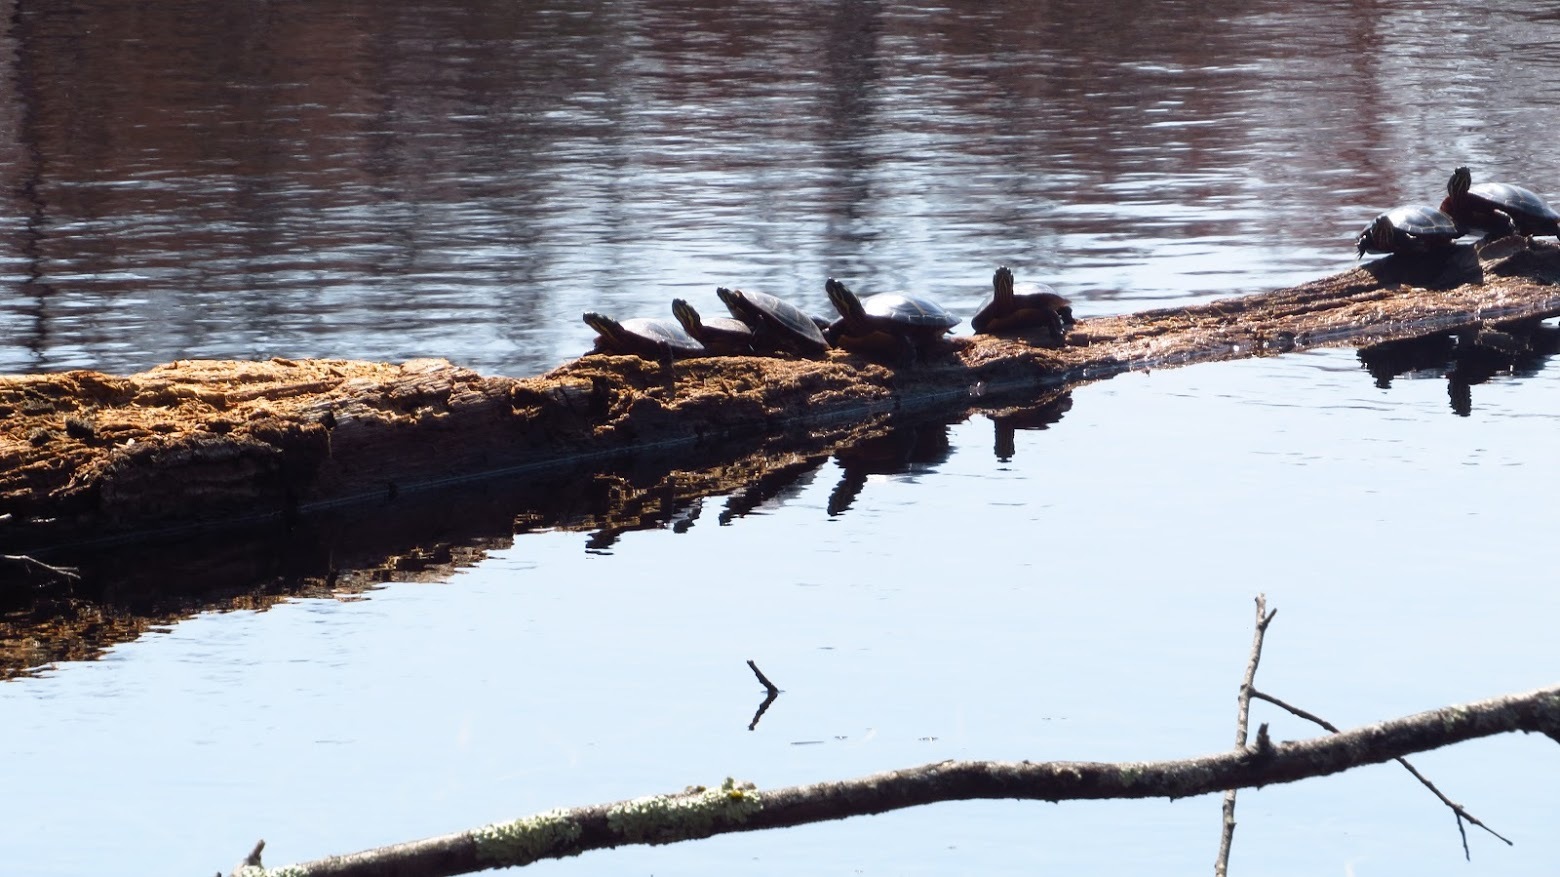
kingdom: Animalia
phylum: Chordata
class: Testudines
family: Emydidae
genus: Chrysemys
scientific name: Chrysemys picta
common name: Painted turtle
